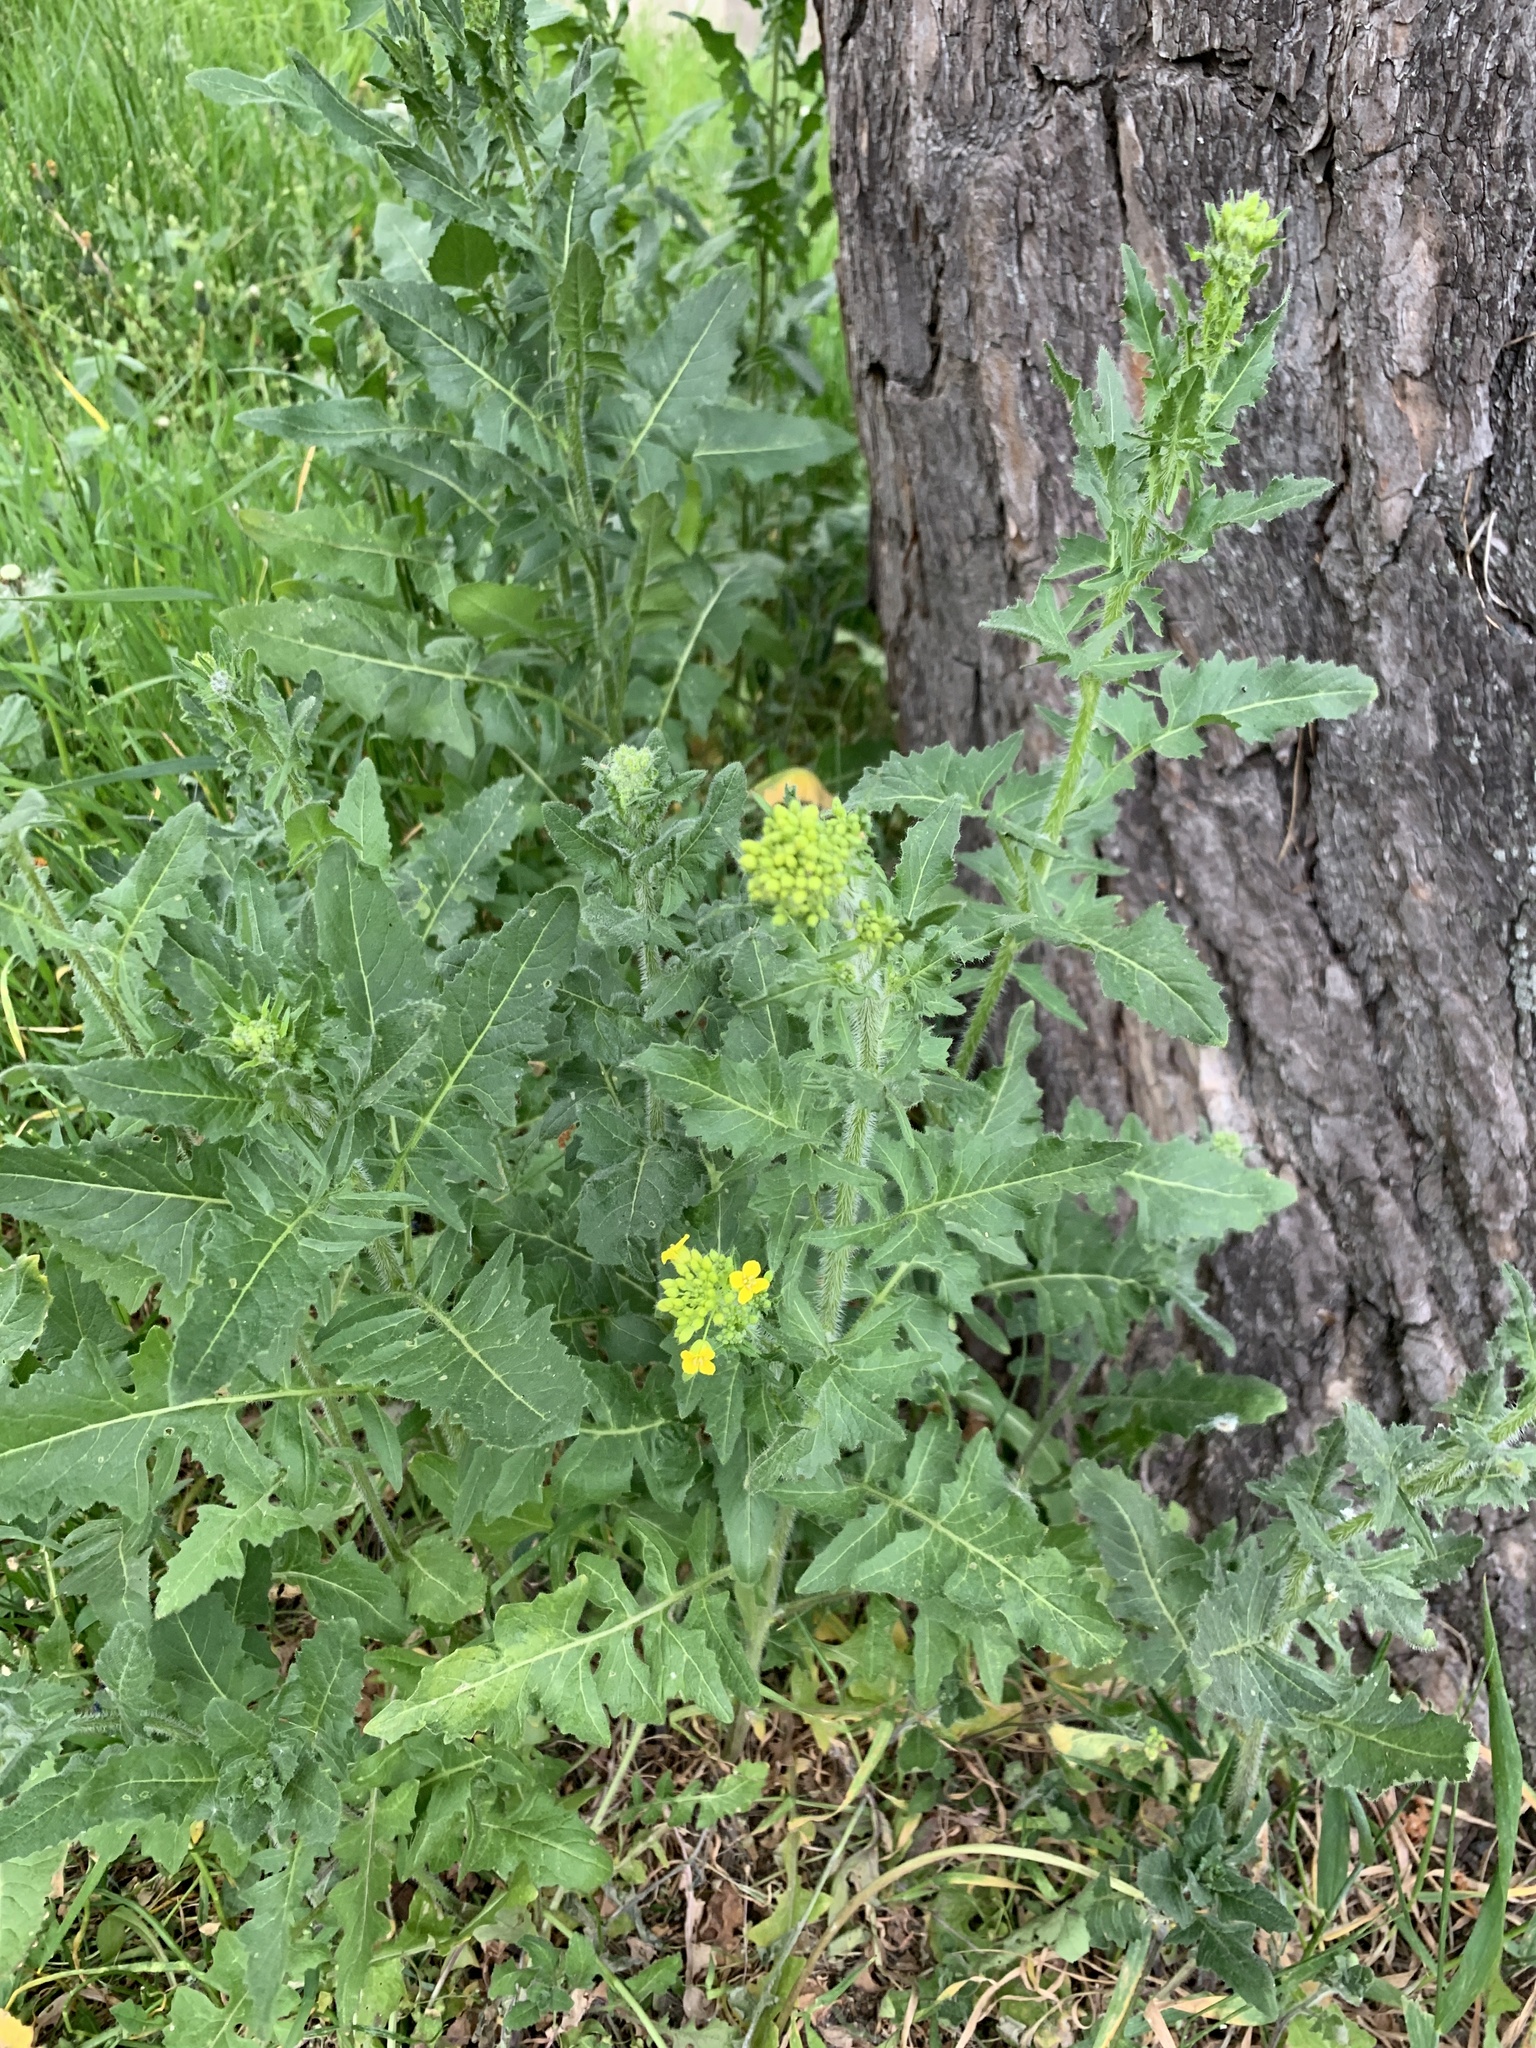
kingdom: Plantae
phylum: Tracheophyta
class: Magnoliopsida
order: Brassicales
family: Brassicaceae
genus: Sisymbrium
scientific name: Sisymbrium loeselii
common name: False london-rocket
